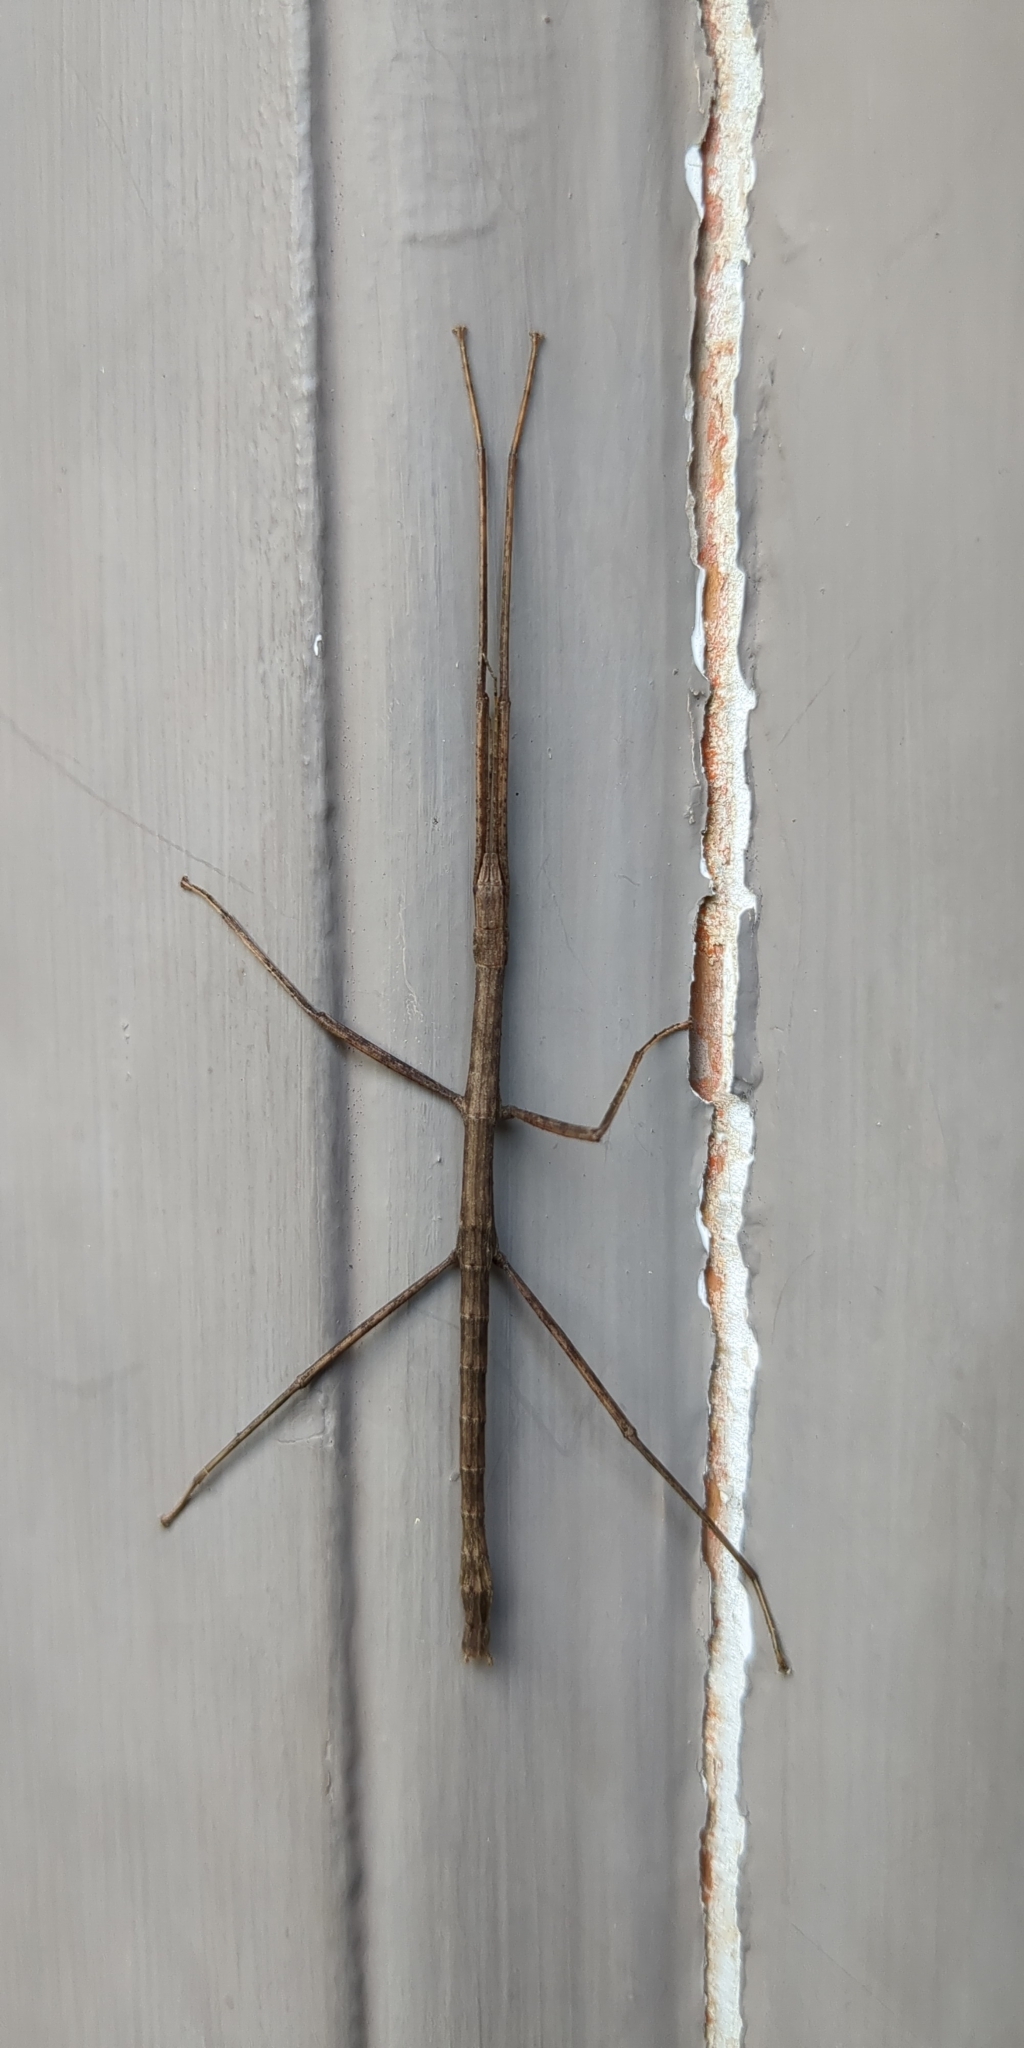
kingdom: Animalia
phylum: Arthropoda
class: Insecta
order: Phasmida
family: Phasmatidae
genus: Tectarchus
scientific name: Tectarchus huttoni
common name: The common ridge-backed stick insect
